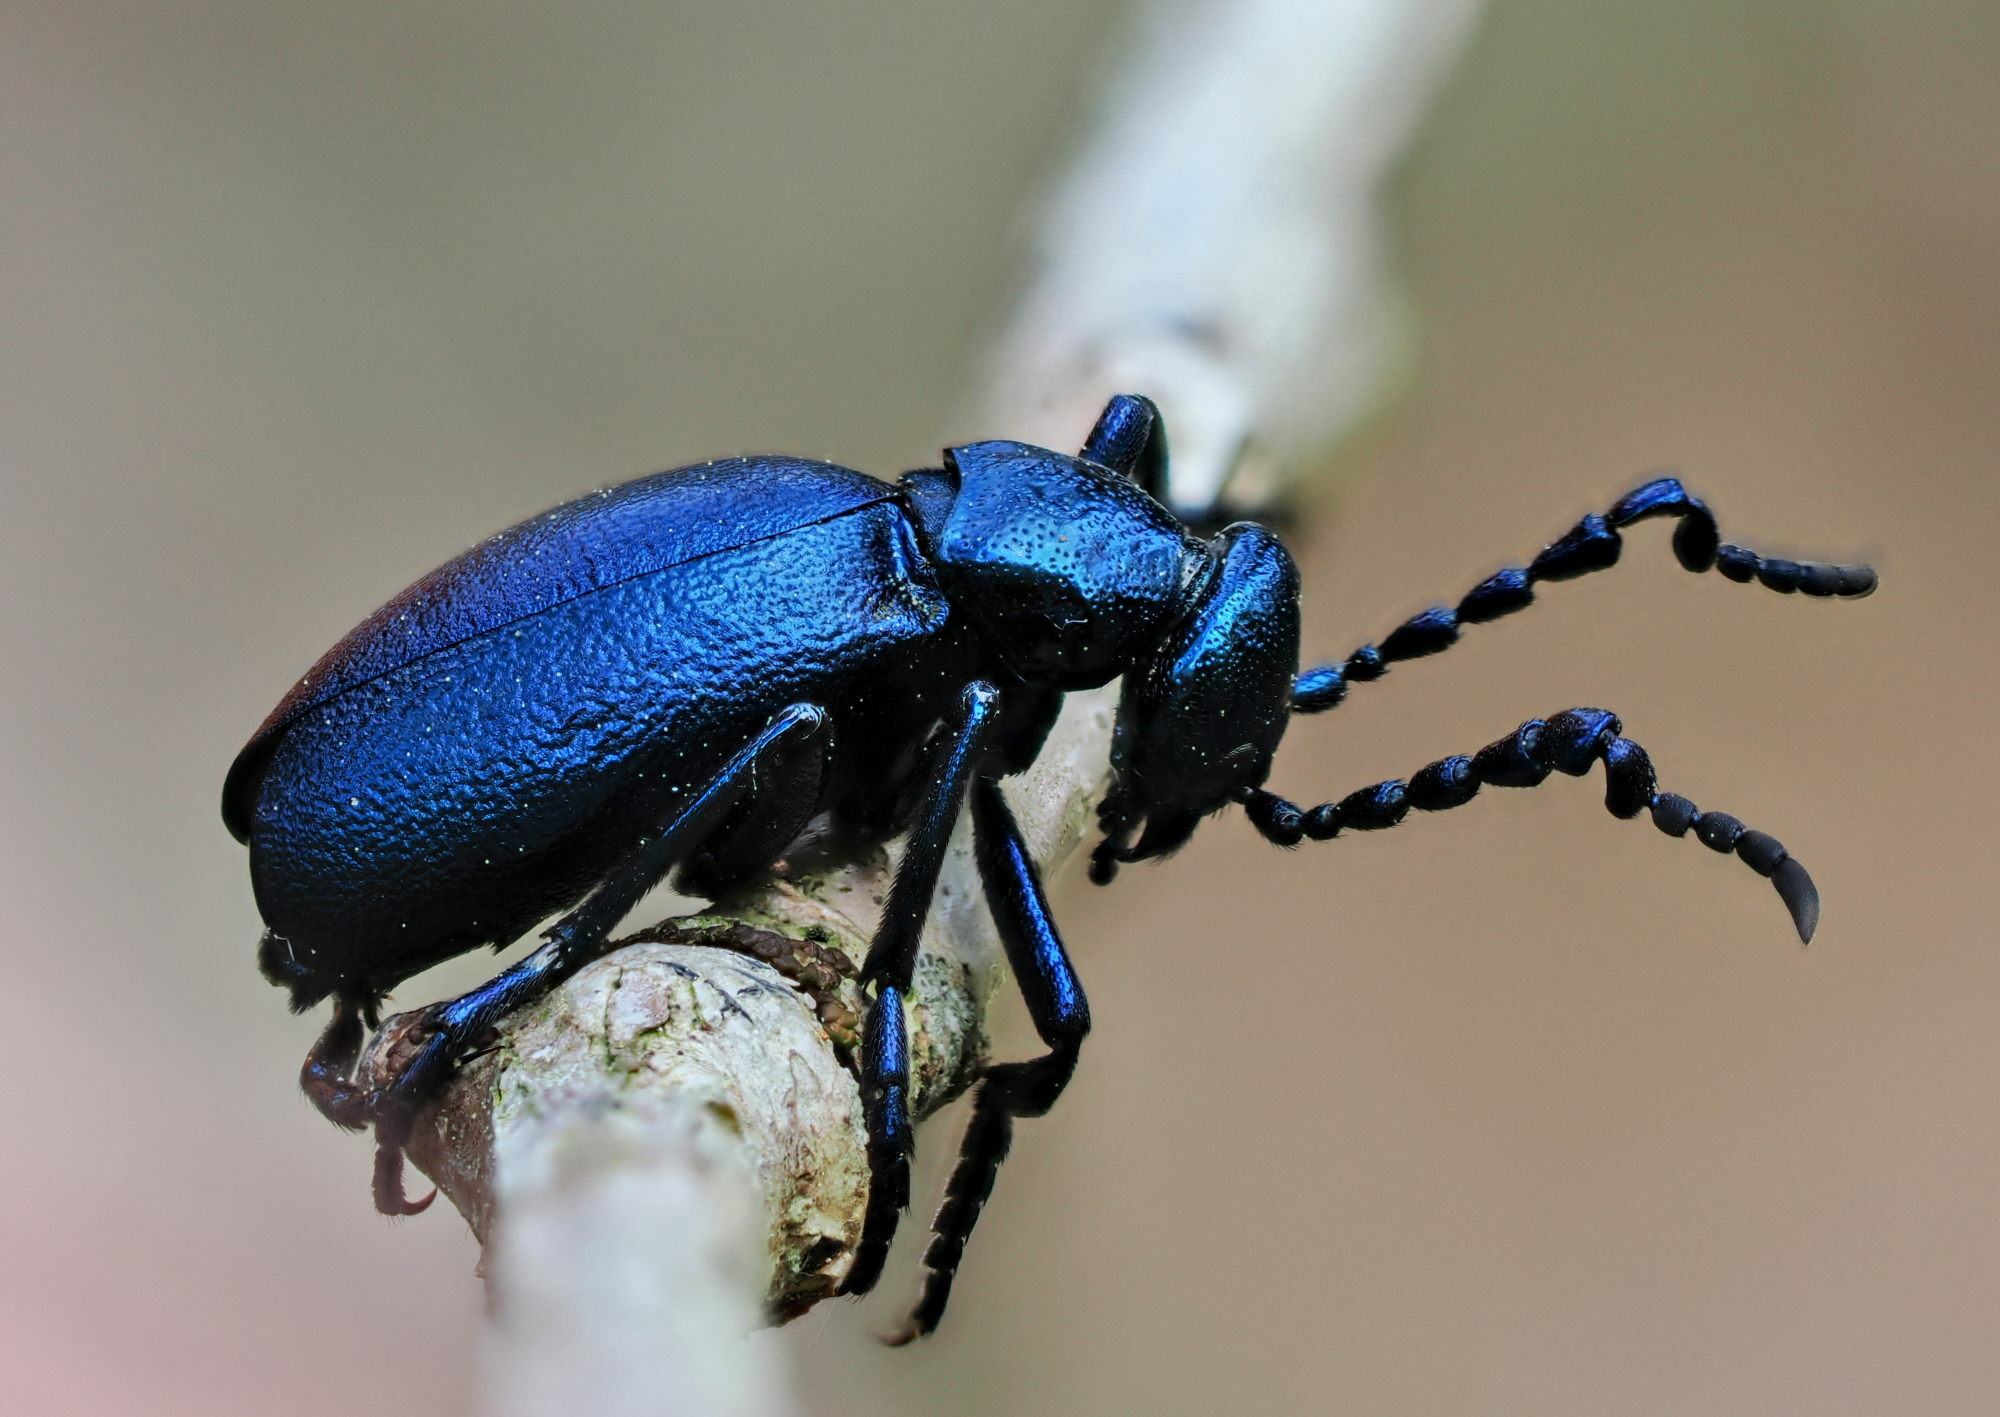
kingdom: Animalia
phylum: Arthropoda
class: Insecta
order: Coleoptera
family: Meloidae
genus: Meloe
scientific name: Meloe violaceus
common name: Violet oil-beetle
